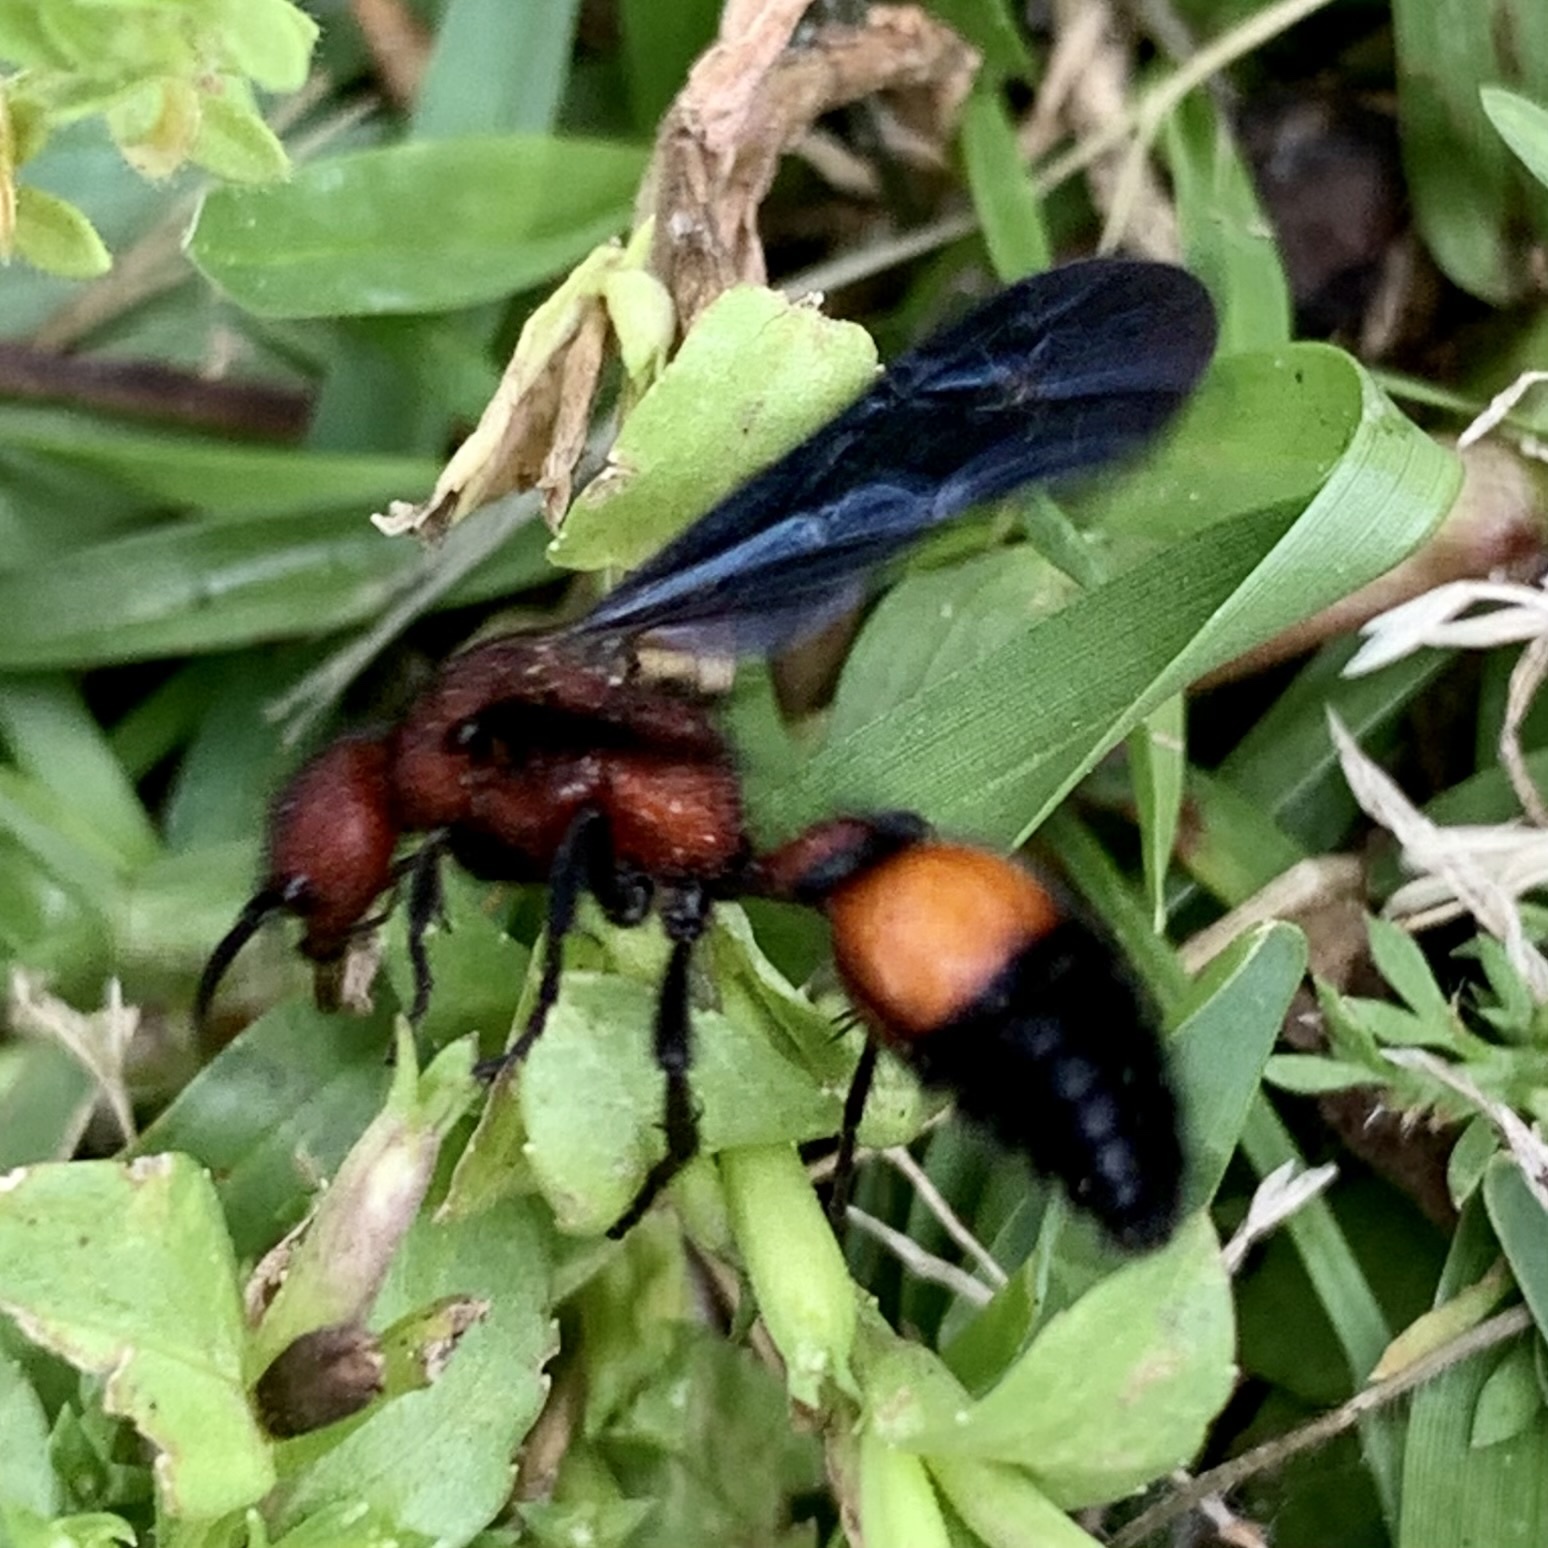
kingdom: Animalia
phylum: Arthropoda
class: Insecta
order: Hymenoptera
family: Mutillidae
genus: Sphaeropthalma
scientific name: Sphaeropthalma
